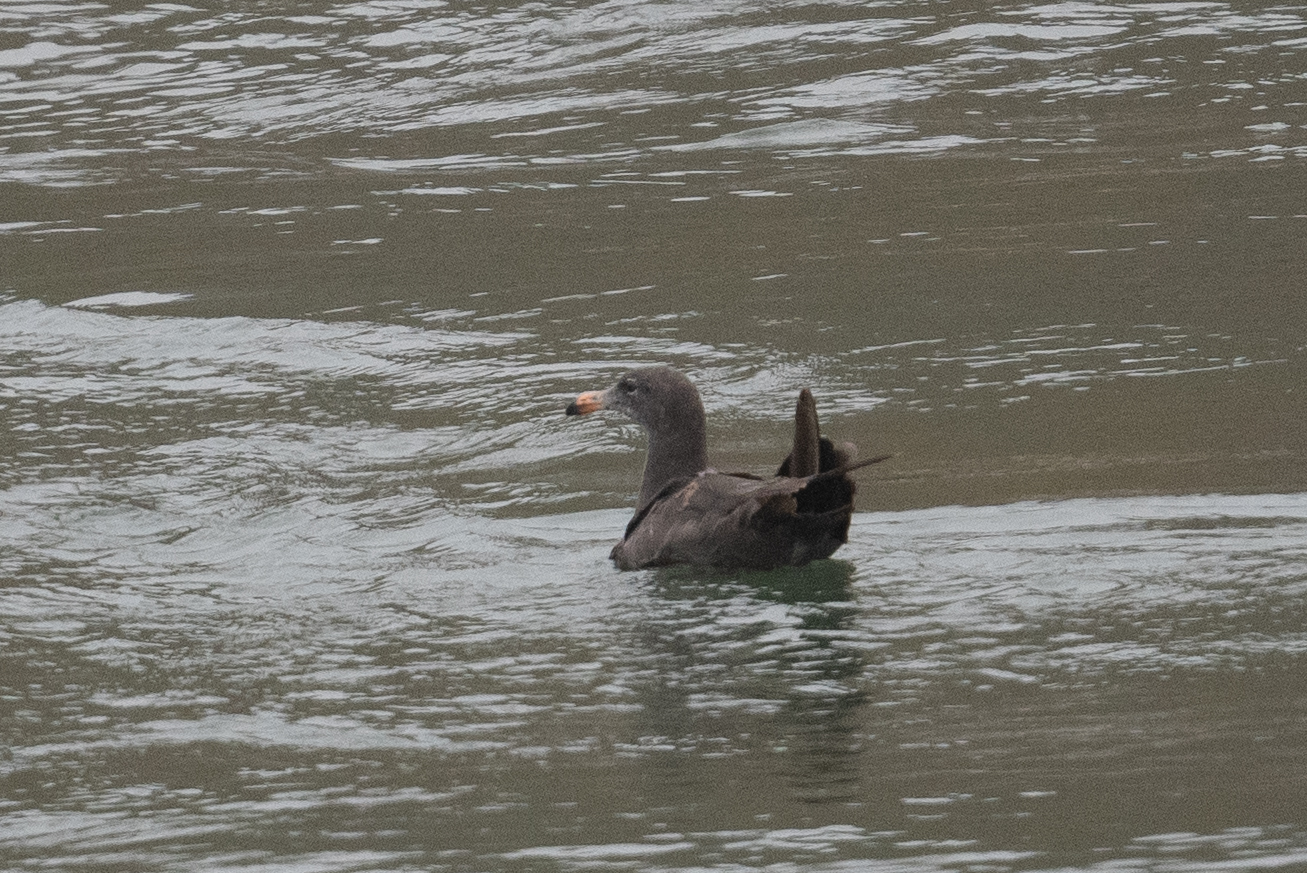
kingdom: Animalia
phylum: Chordata
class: Aves
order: Charadriiformes
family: Laridae
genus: Larus
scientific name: Larus heermanni
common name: Heermann's gull
